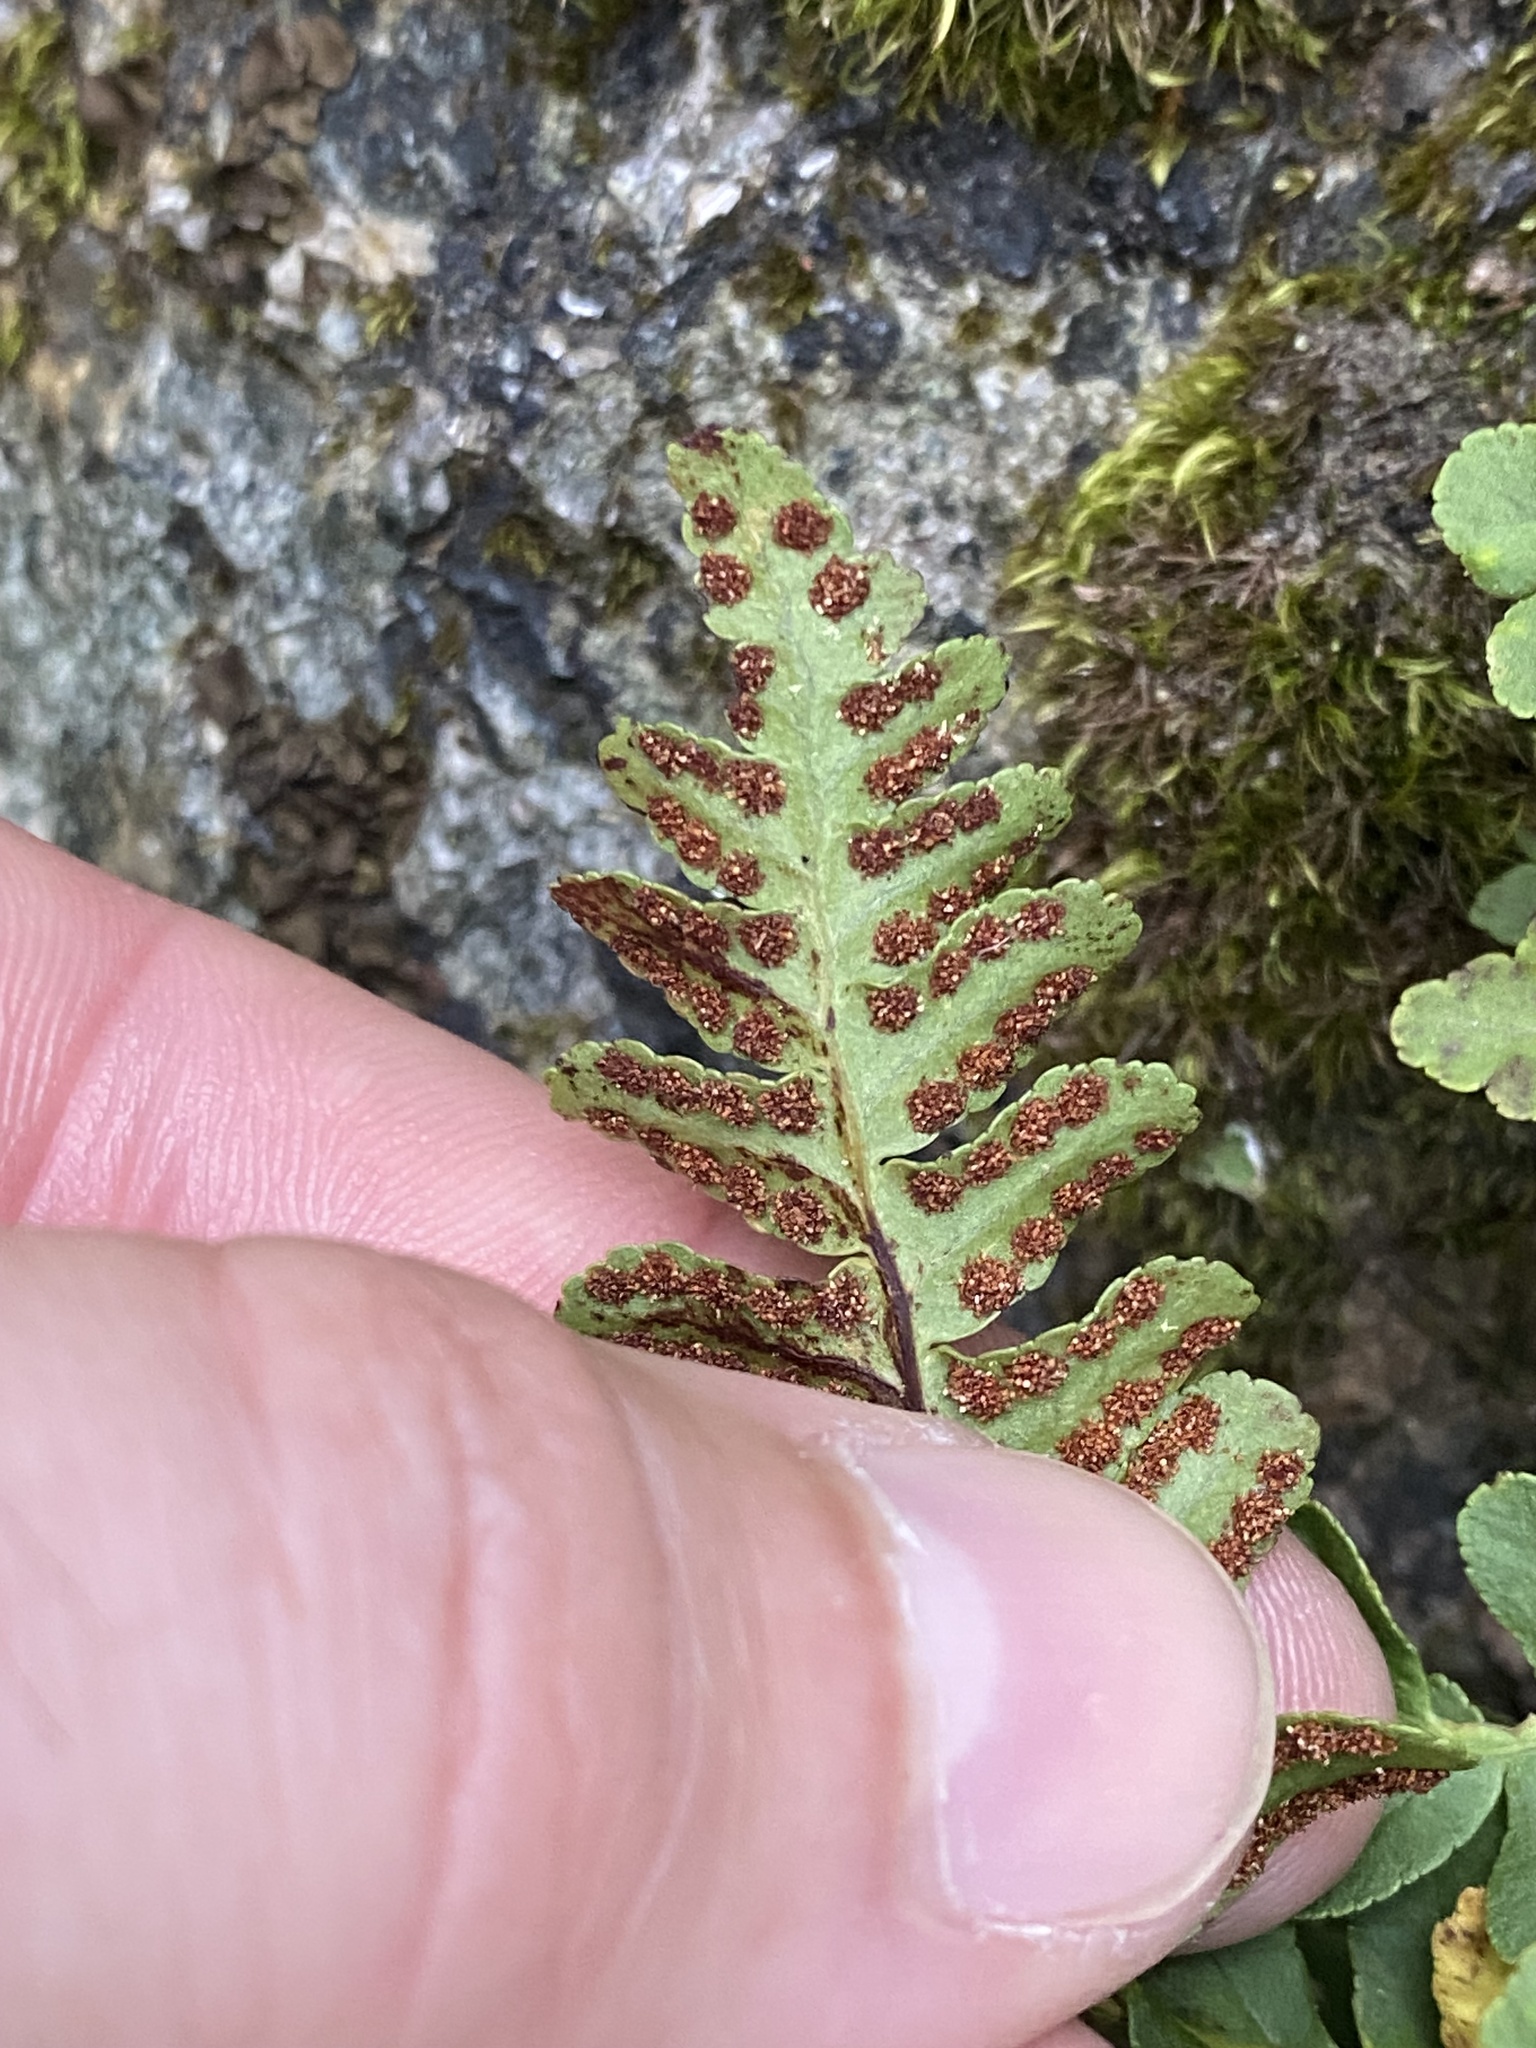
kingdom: Plantae
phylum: Tracheophyta
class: Polypodiopsida
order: Polypodiales
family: Polypodiaceae
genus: Polypodium
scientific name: Polypodium saximontanum
